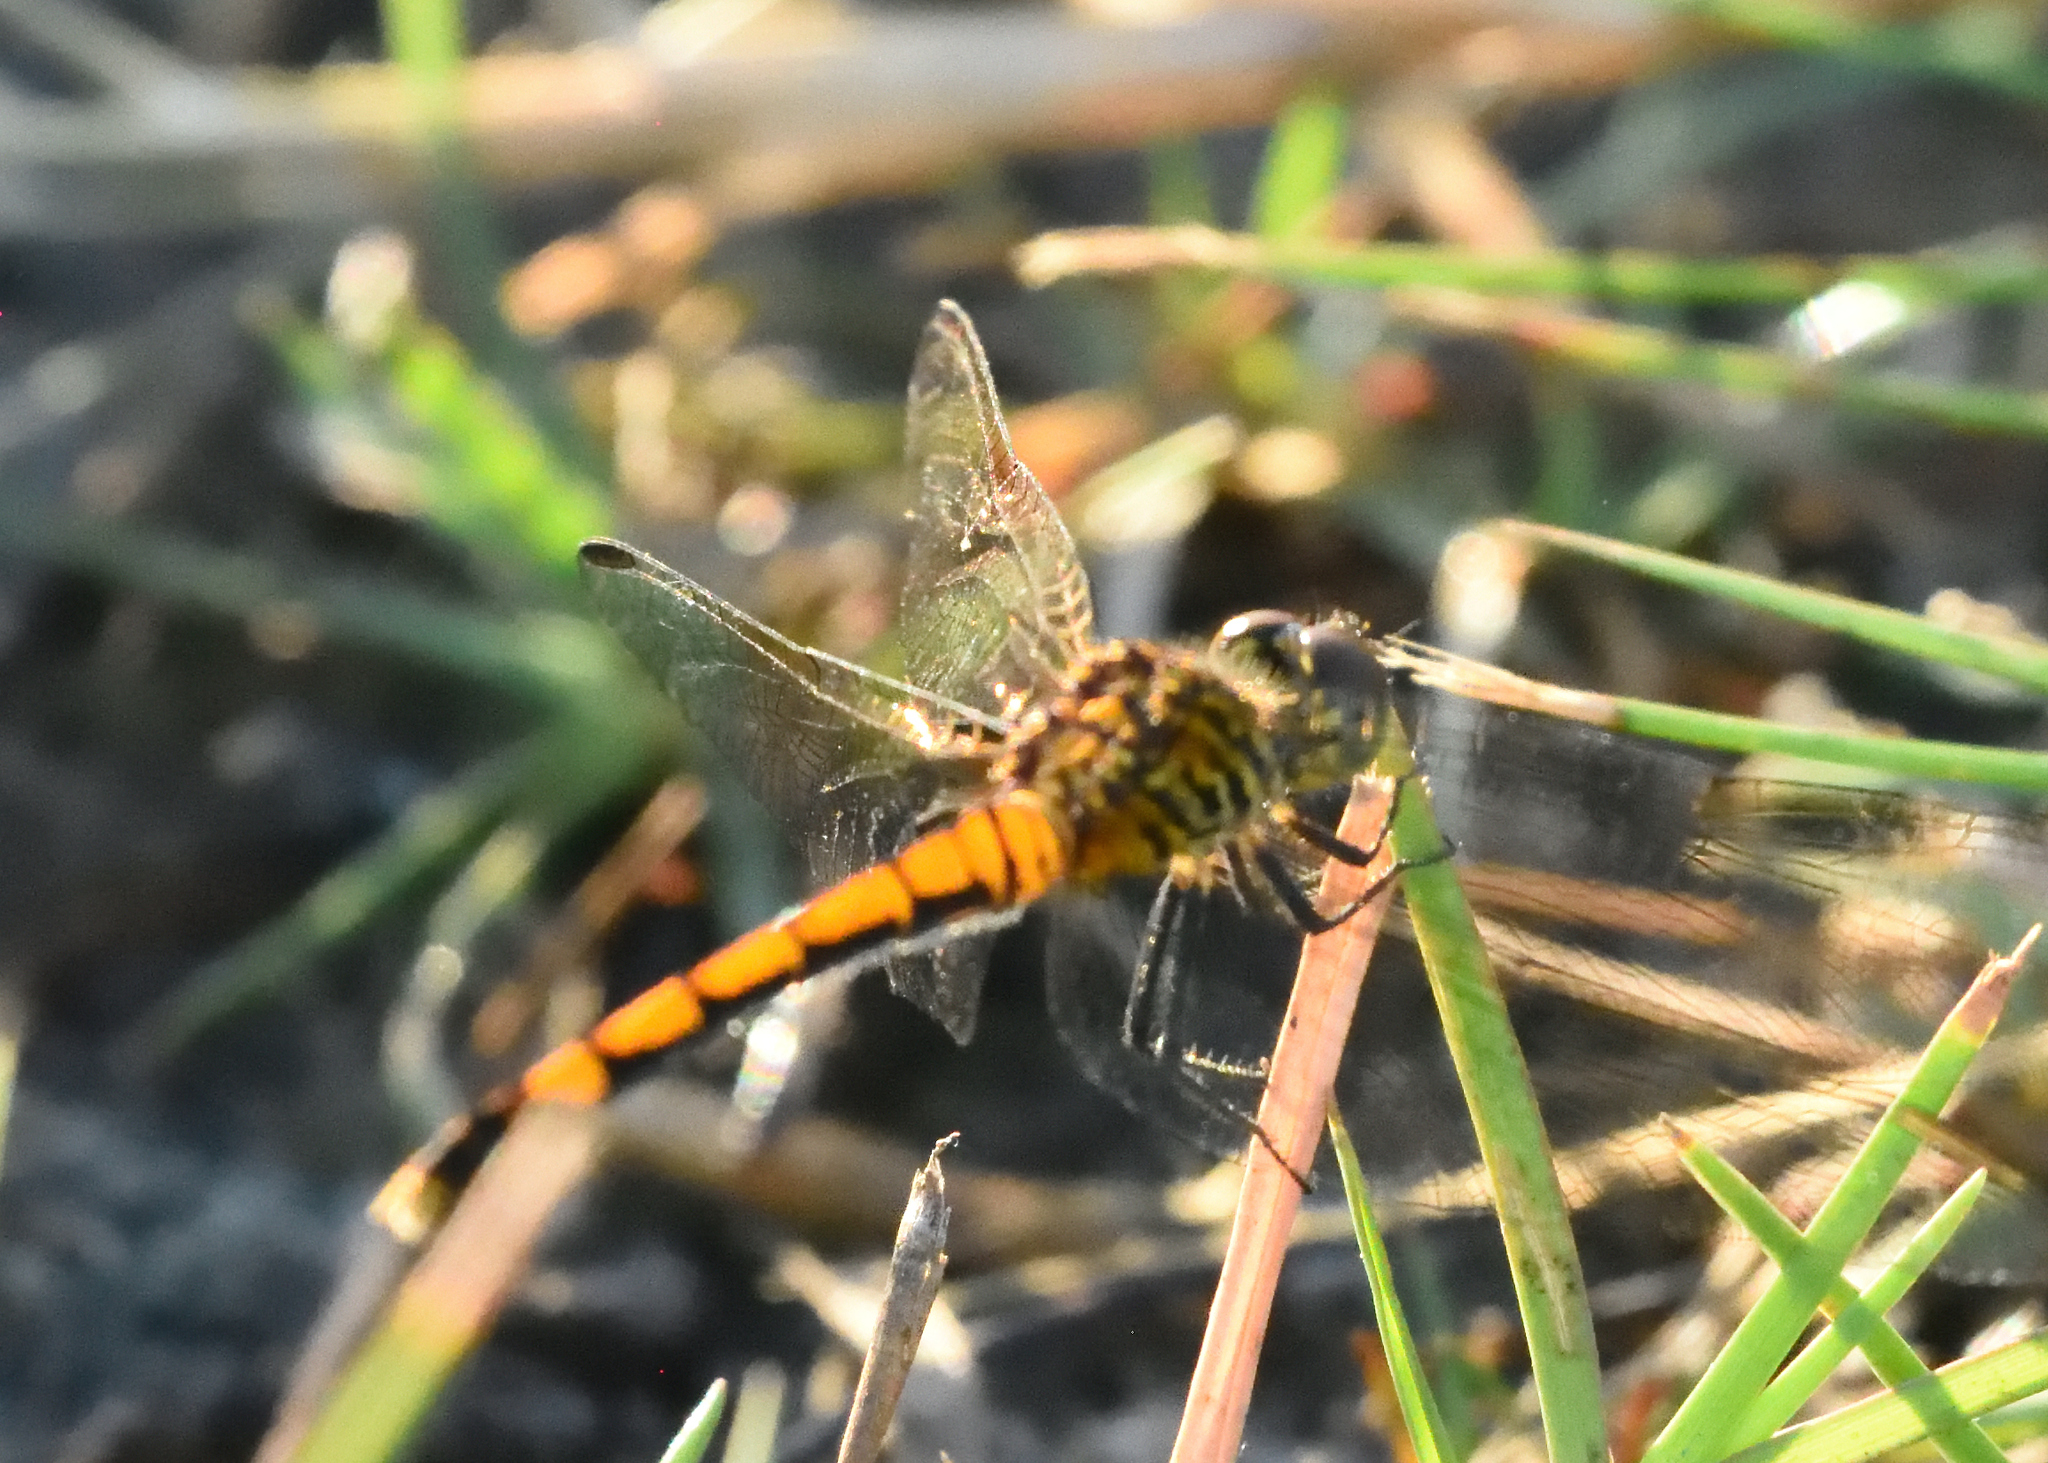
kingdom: Animalia
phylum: Arthropoda
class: Insecta
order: Odonata
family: Libellulidae
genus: Erythrodiplax
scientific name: Erythrodiplax berenice
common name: Seaside dragonlet
